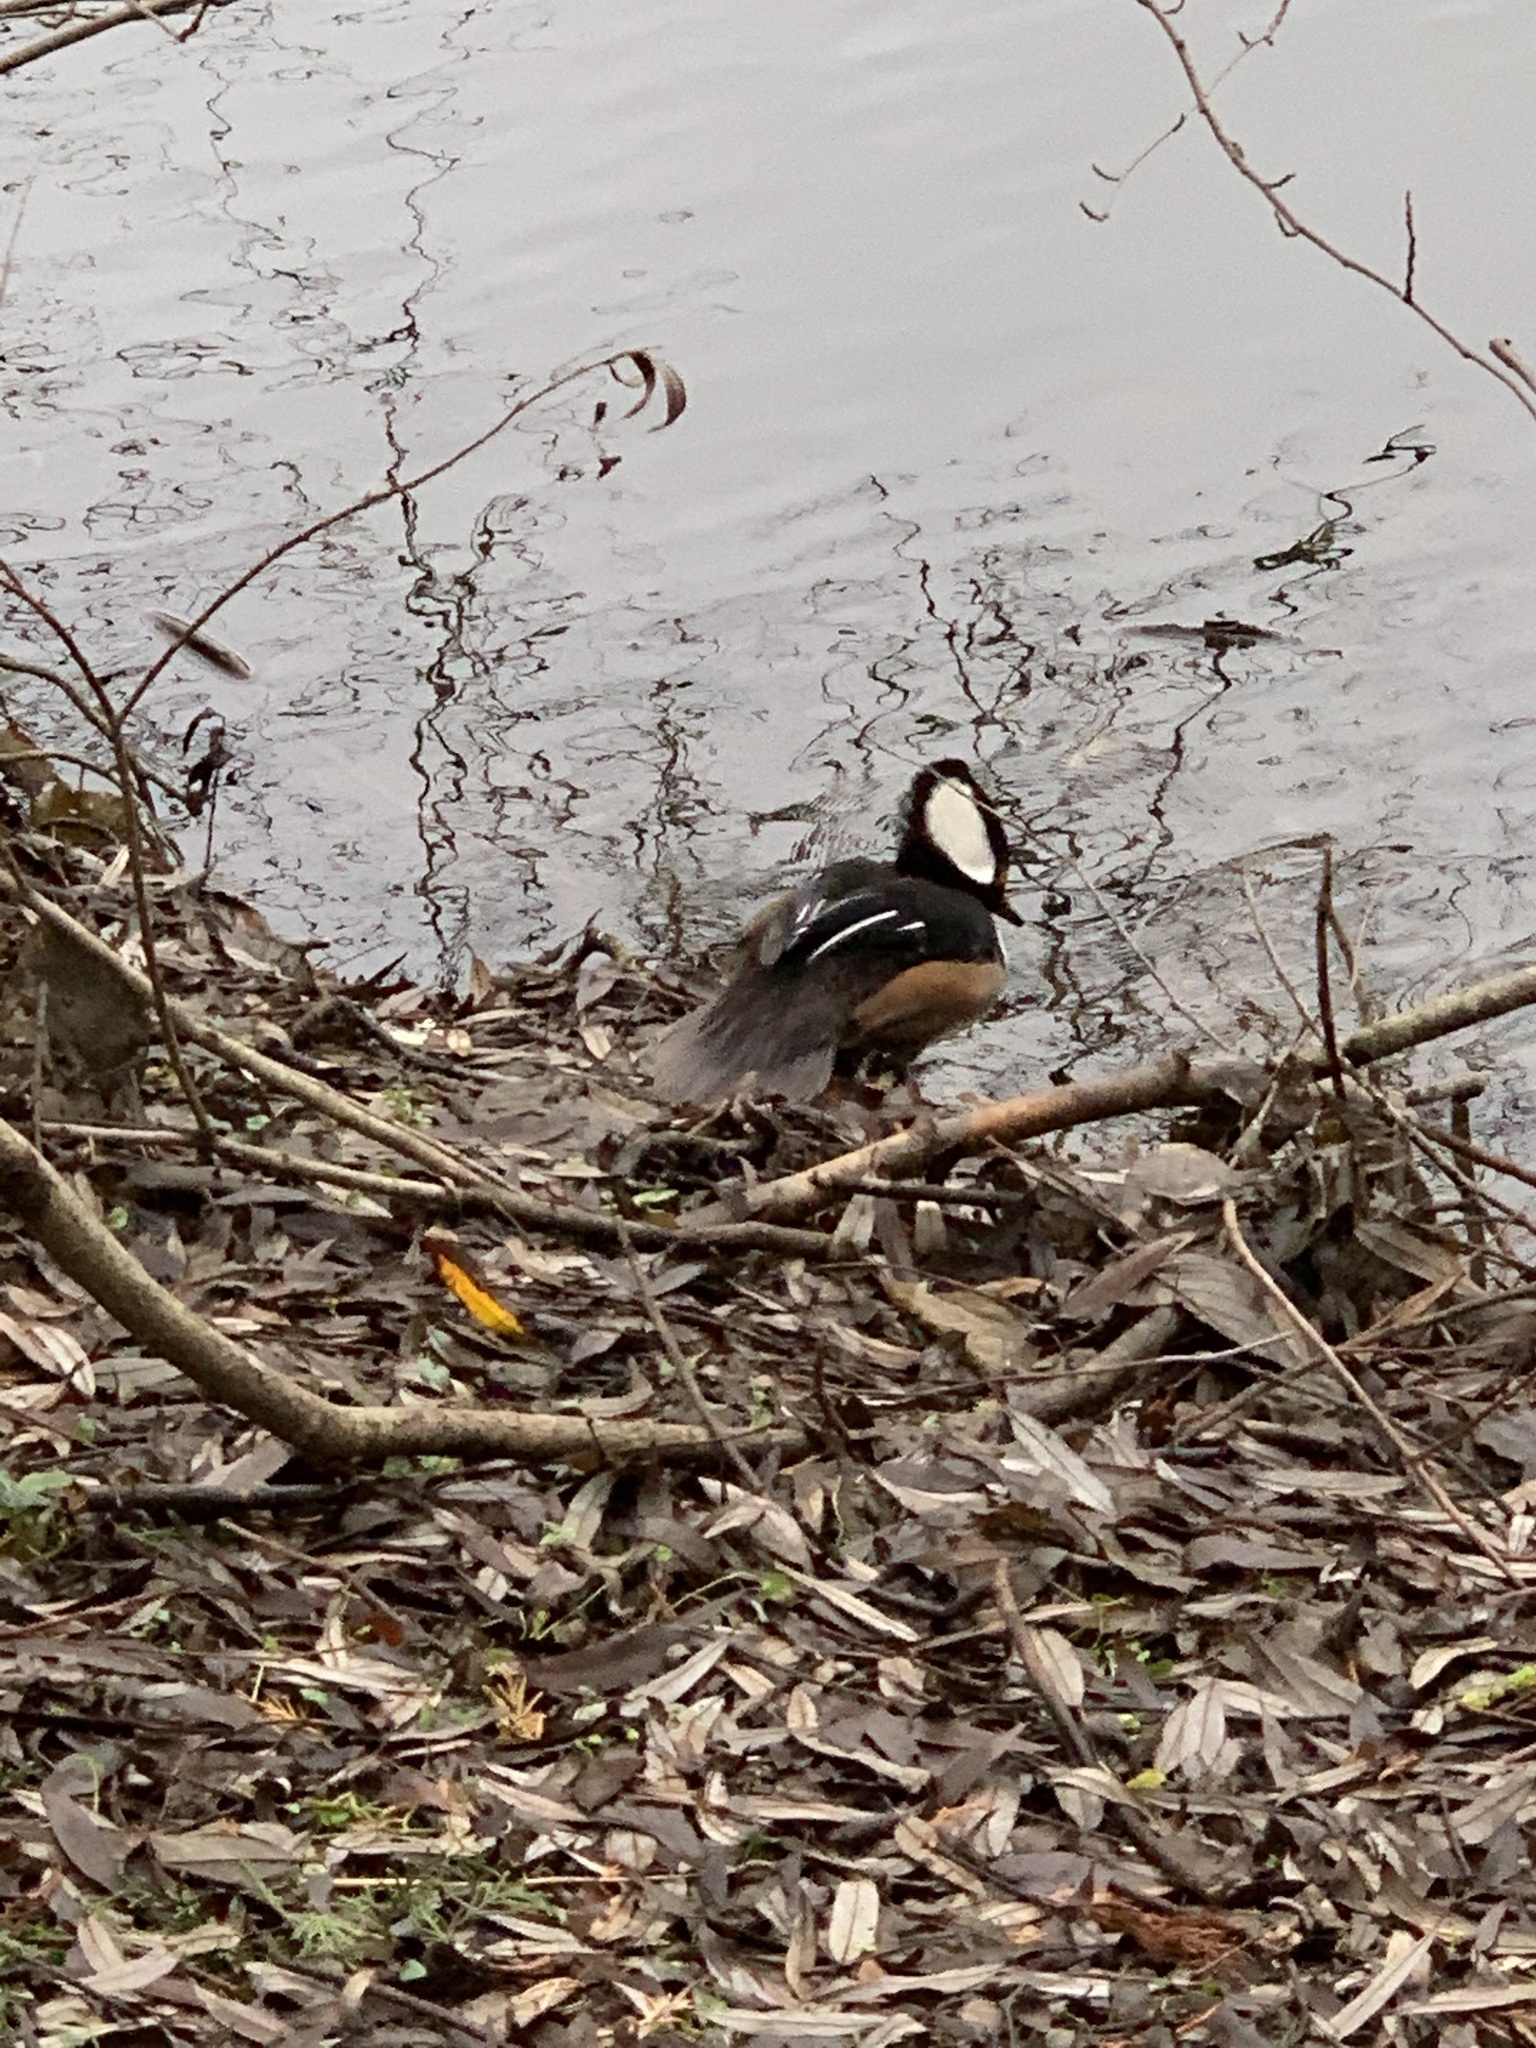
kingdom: Animalia
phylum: Chordata
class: Aves
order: Anseriformes
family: Anatidae
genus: Lophodytes
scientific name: Lophodytes cucullatus
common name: Hooded merganser
